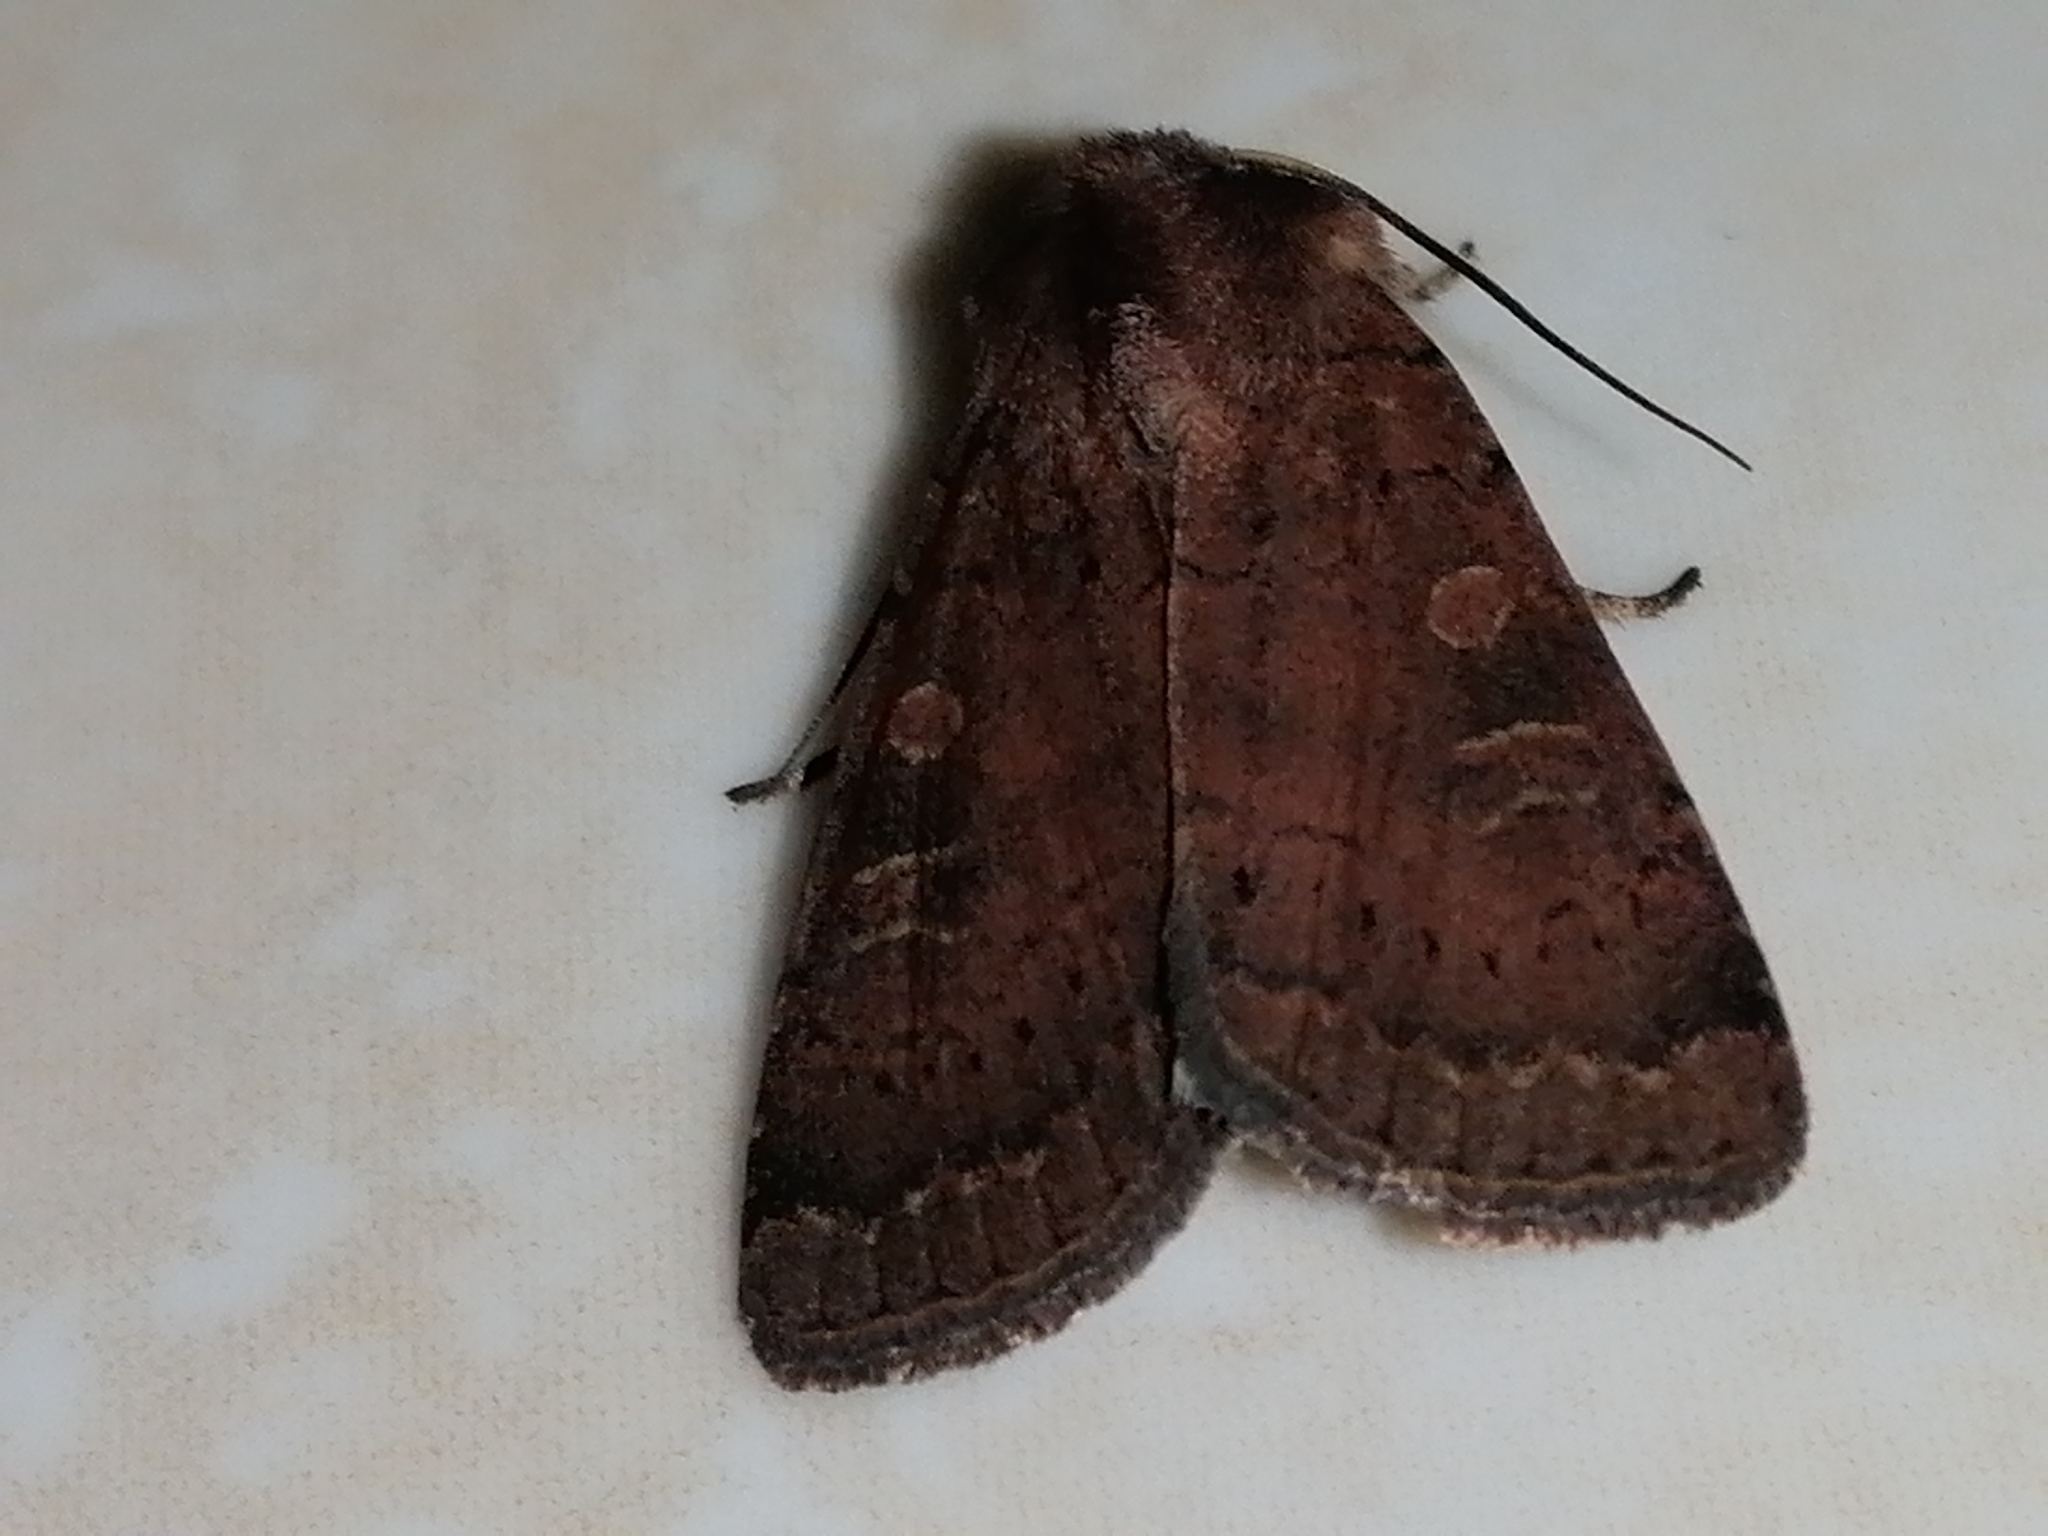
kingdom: Animalia
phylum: Arthropoda
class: Insecta
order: Lepidoptera
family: Noctuidae
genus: Xestia
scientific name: Xestia xanthographa
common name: Square-spot rustic
